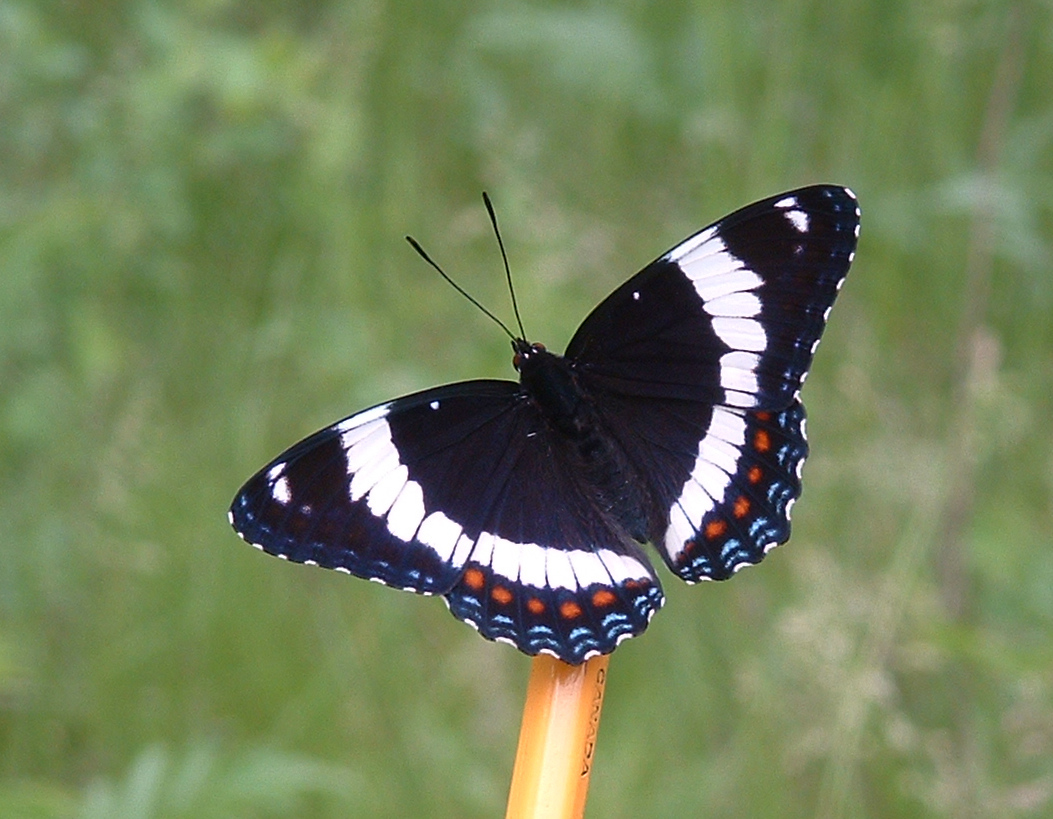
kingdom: Animalia
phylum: Arthropoda
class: Insecta
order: Lepidoptera
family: Nymphalidae
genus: Limenitis
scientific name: Limenitis arthemis
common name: Red-spotted admiral
